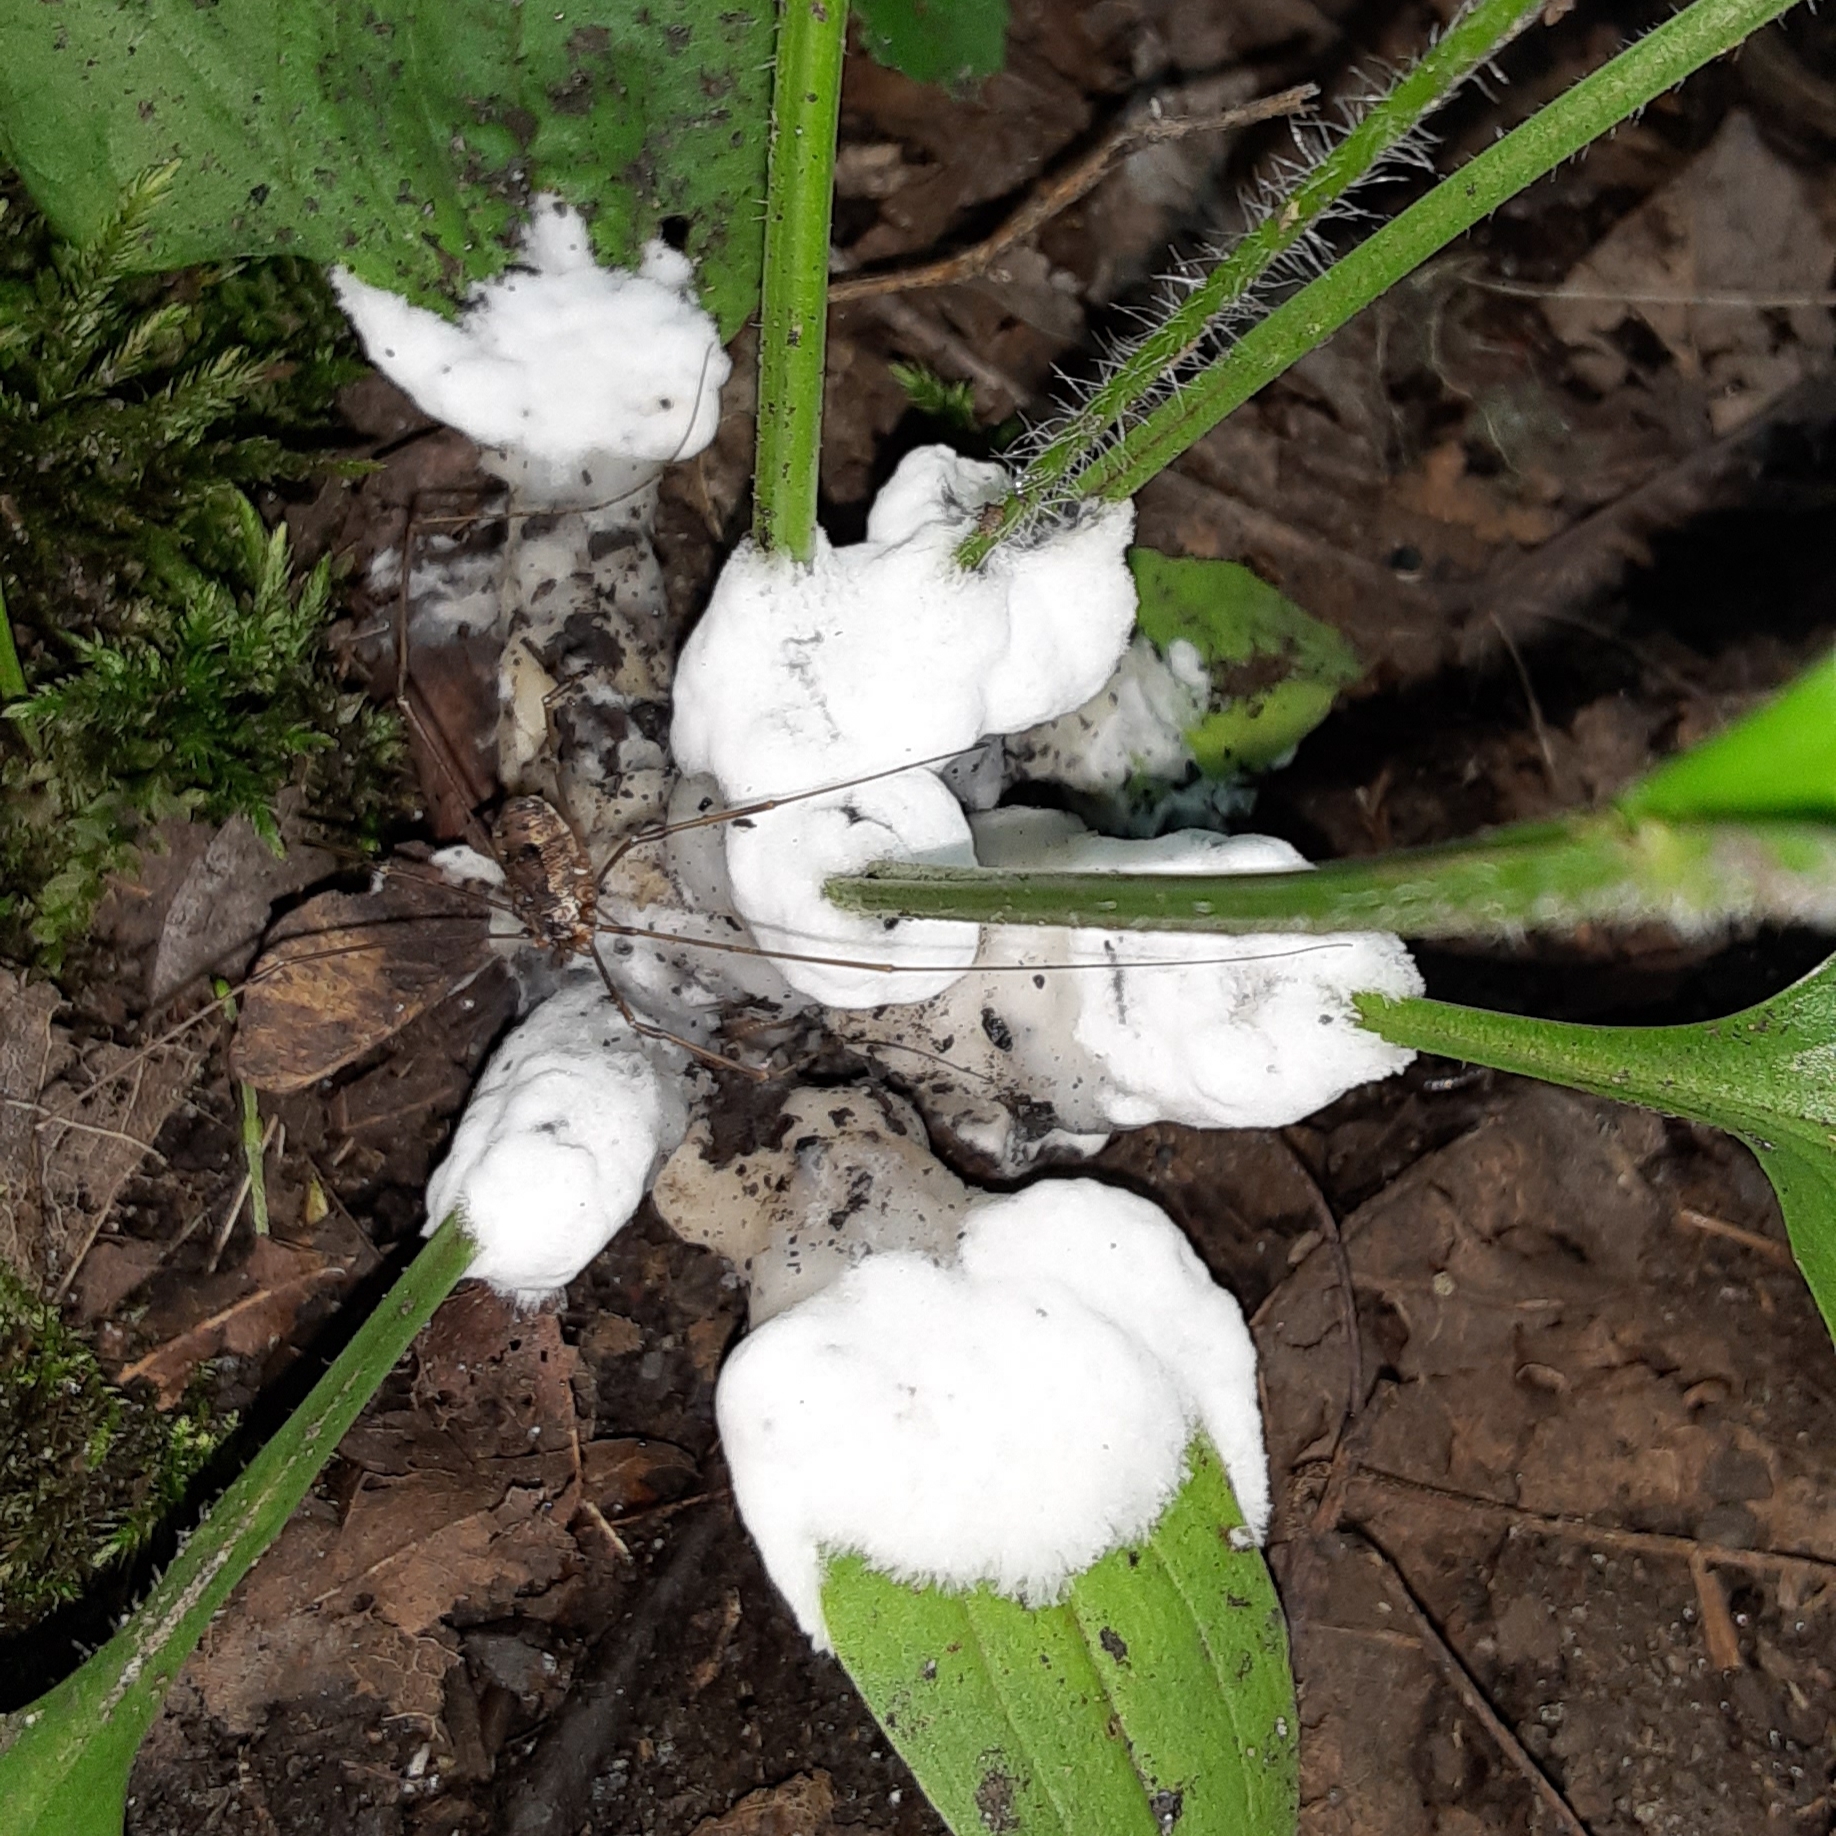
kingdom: Fungi
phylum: Basidiomycota
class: Agaricomycetes
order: Sebacinales
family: Sebacinaceae
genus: Sebacina
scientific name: Sebacina incrustans
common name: Enveloping crust
